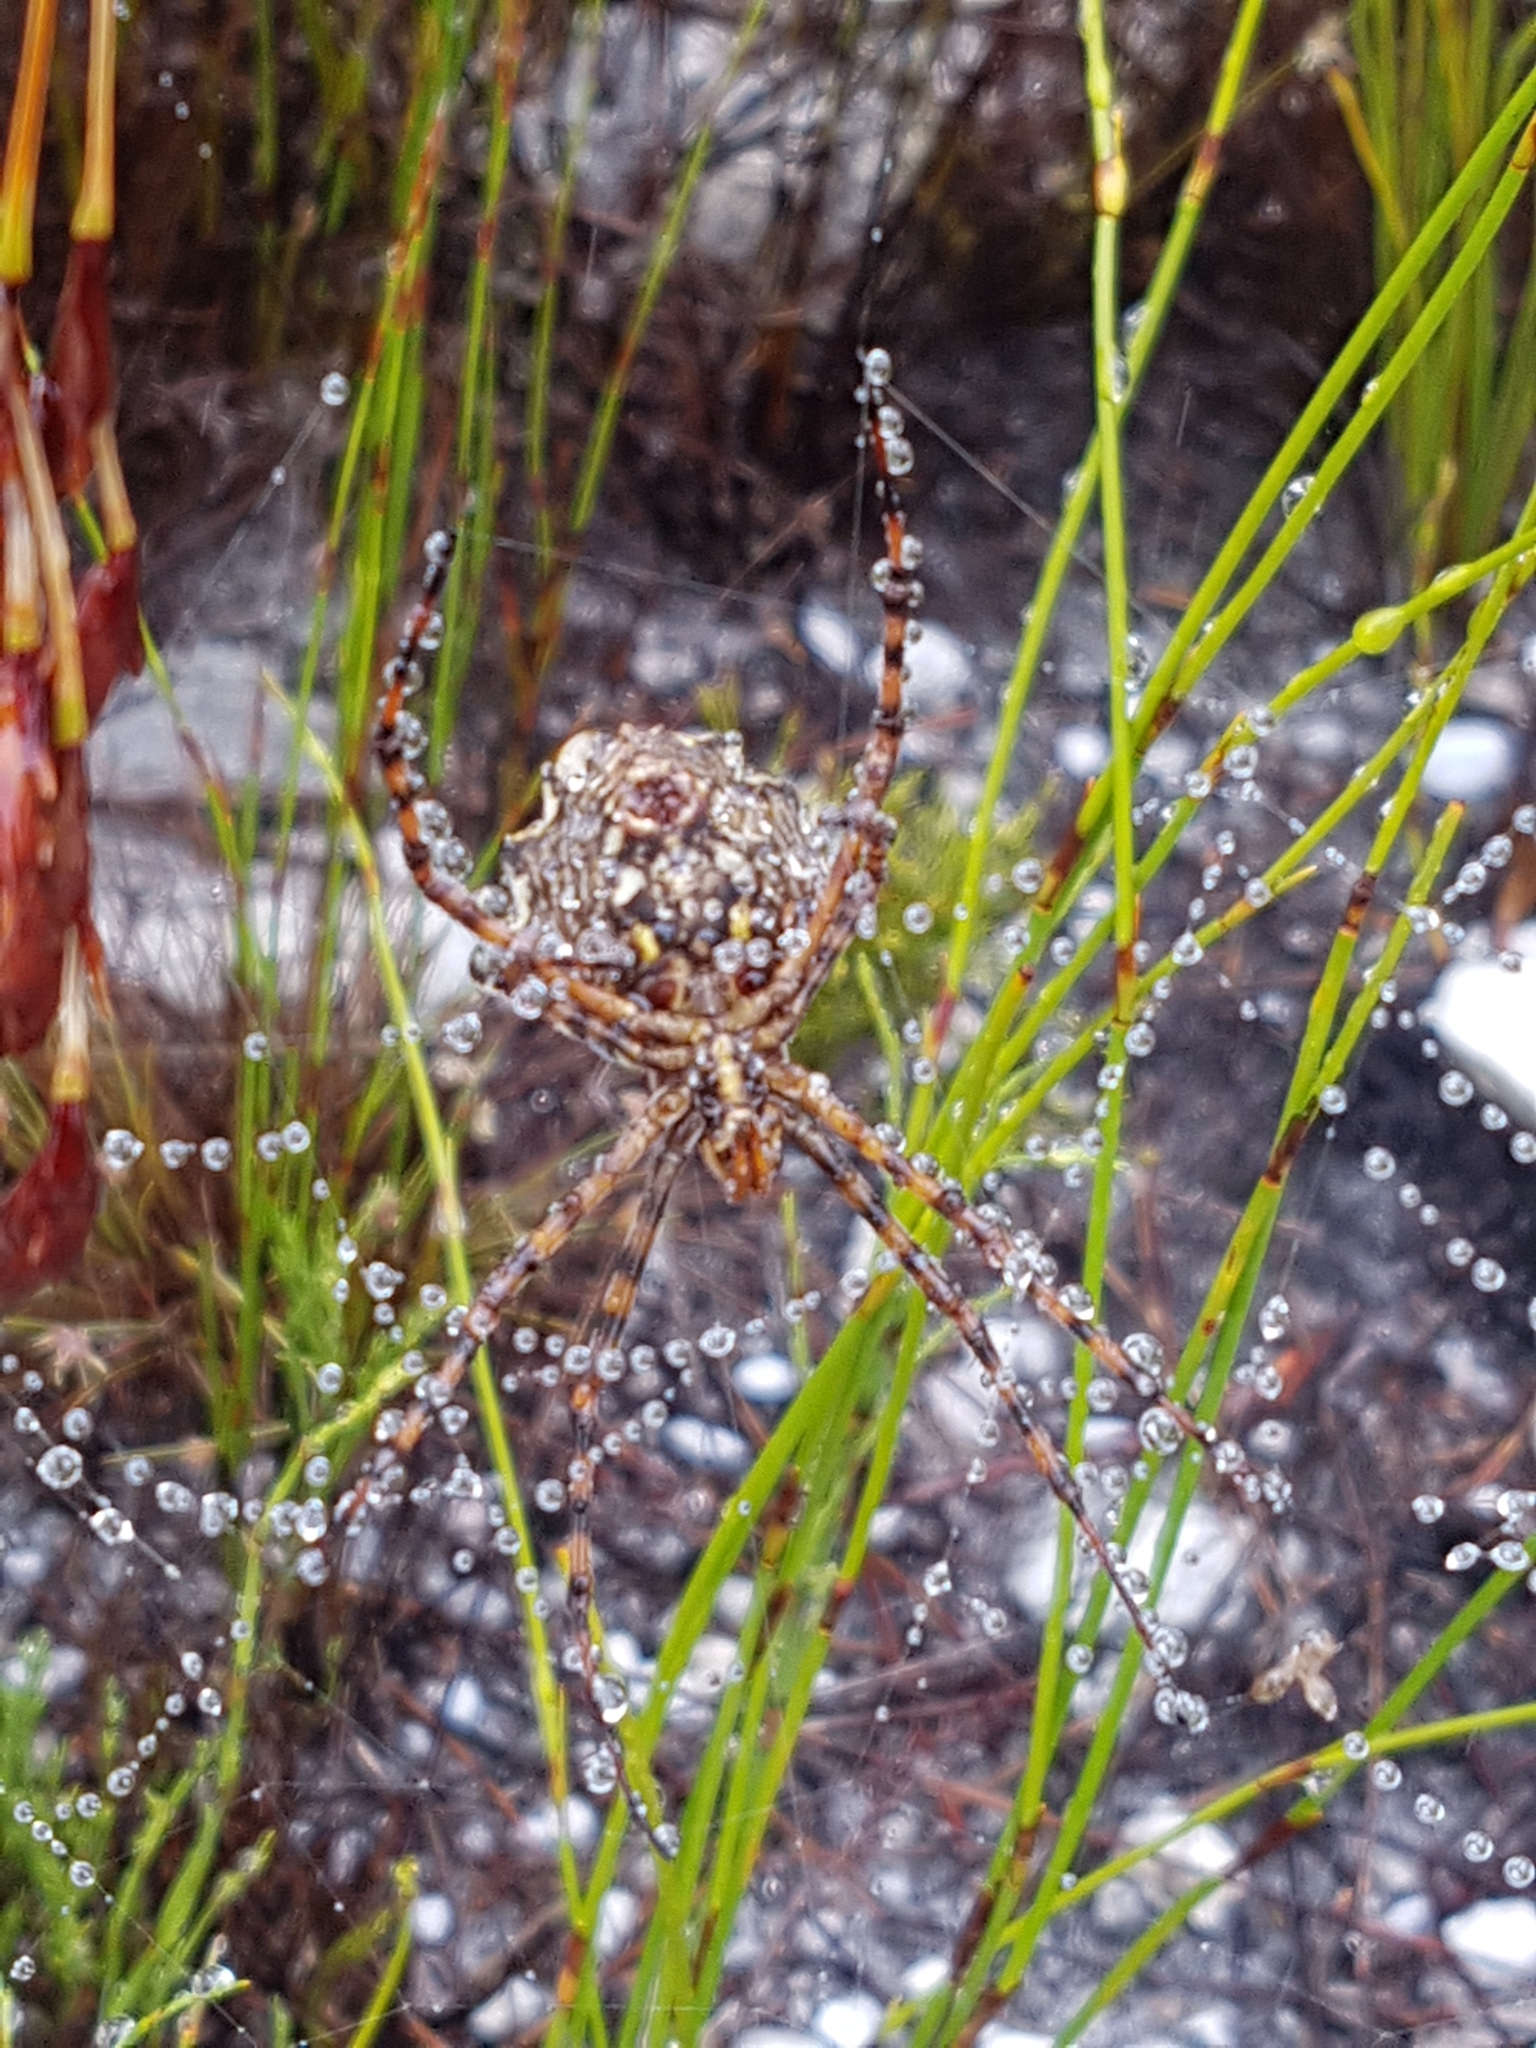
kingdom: Animalia
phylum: Arthropoda
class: Arachnida
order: Araneae
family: Araneidae
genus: Argiope
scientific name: Argiope australis
